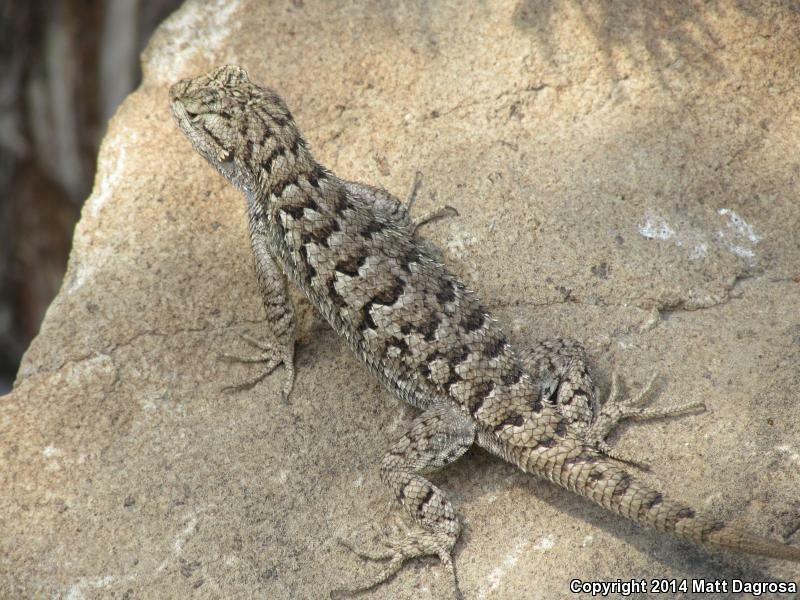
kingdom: Animalia
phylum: Chordata
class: Squamata
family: Phrynosomatidae
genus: Sceloporus
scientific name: Sceloporus occidentalis
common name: Western fence lizard
